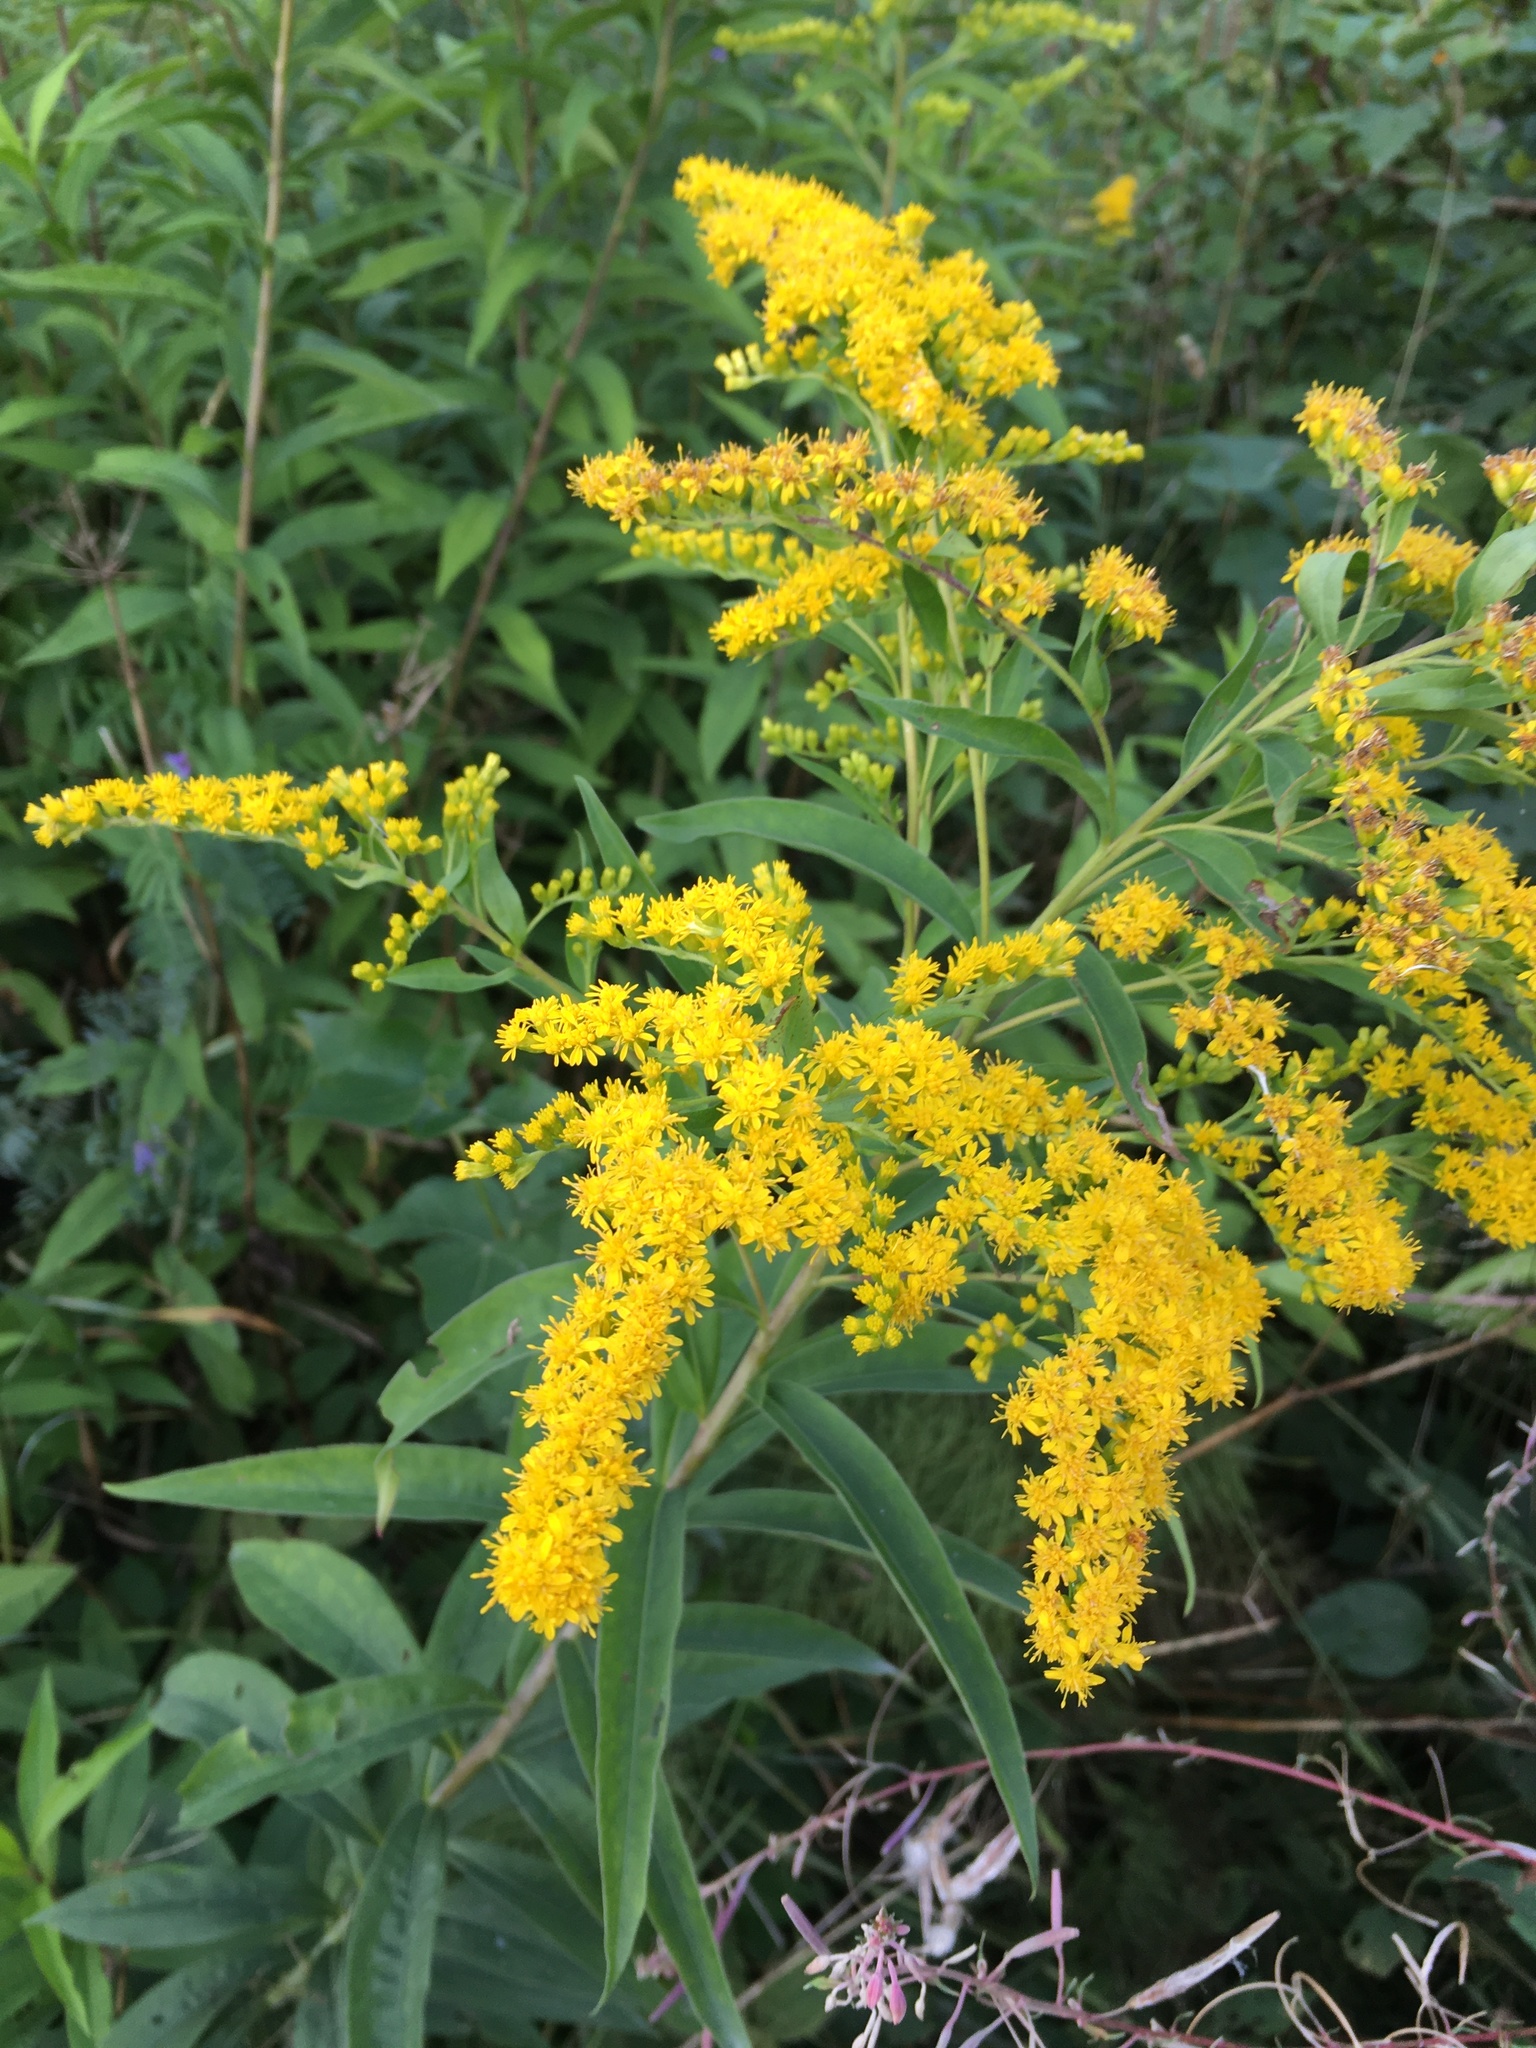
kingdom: Plantae
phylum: Tracheophyta
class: Magnoliopsida
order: Asterales
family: Asteraceae
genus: Solidago
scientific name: Solidago gigantea
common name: Giant goldenrod
